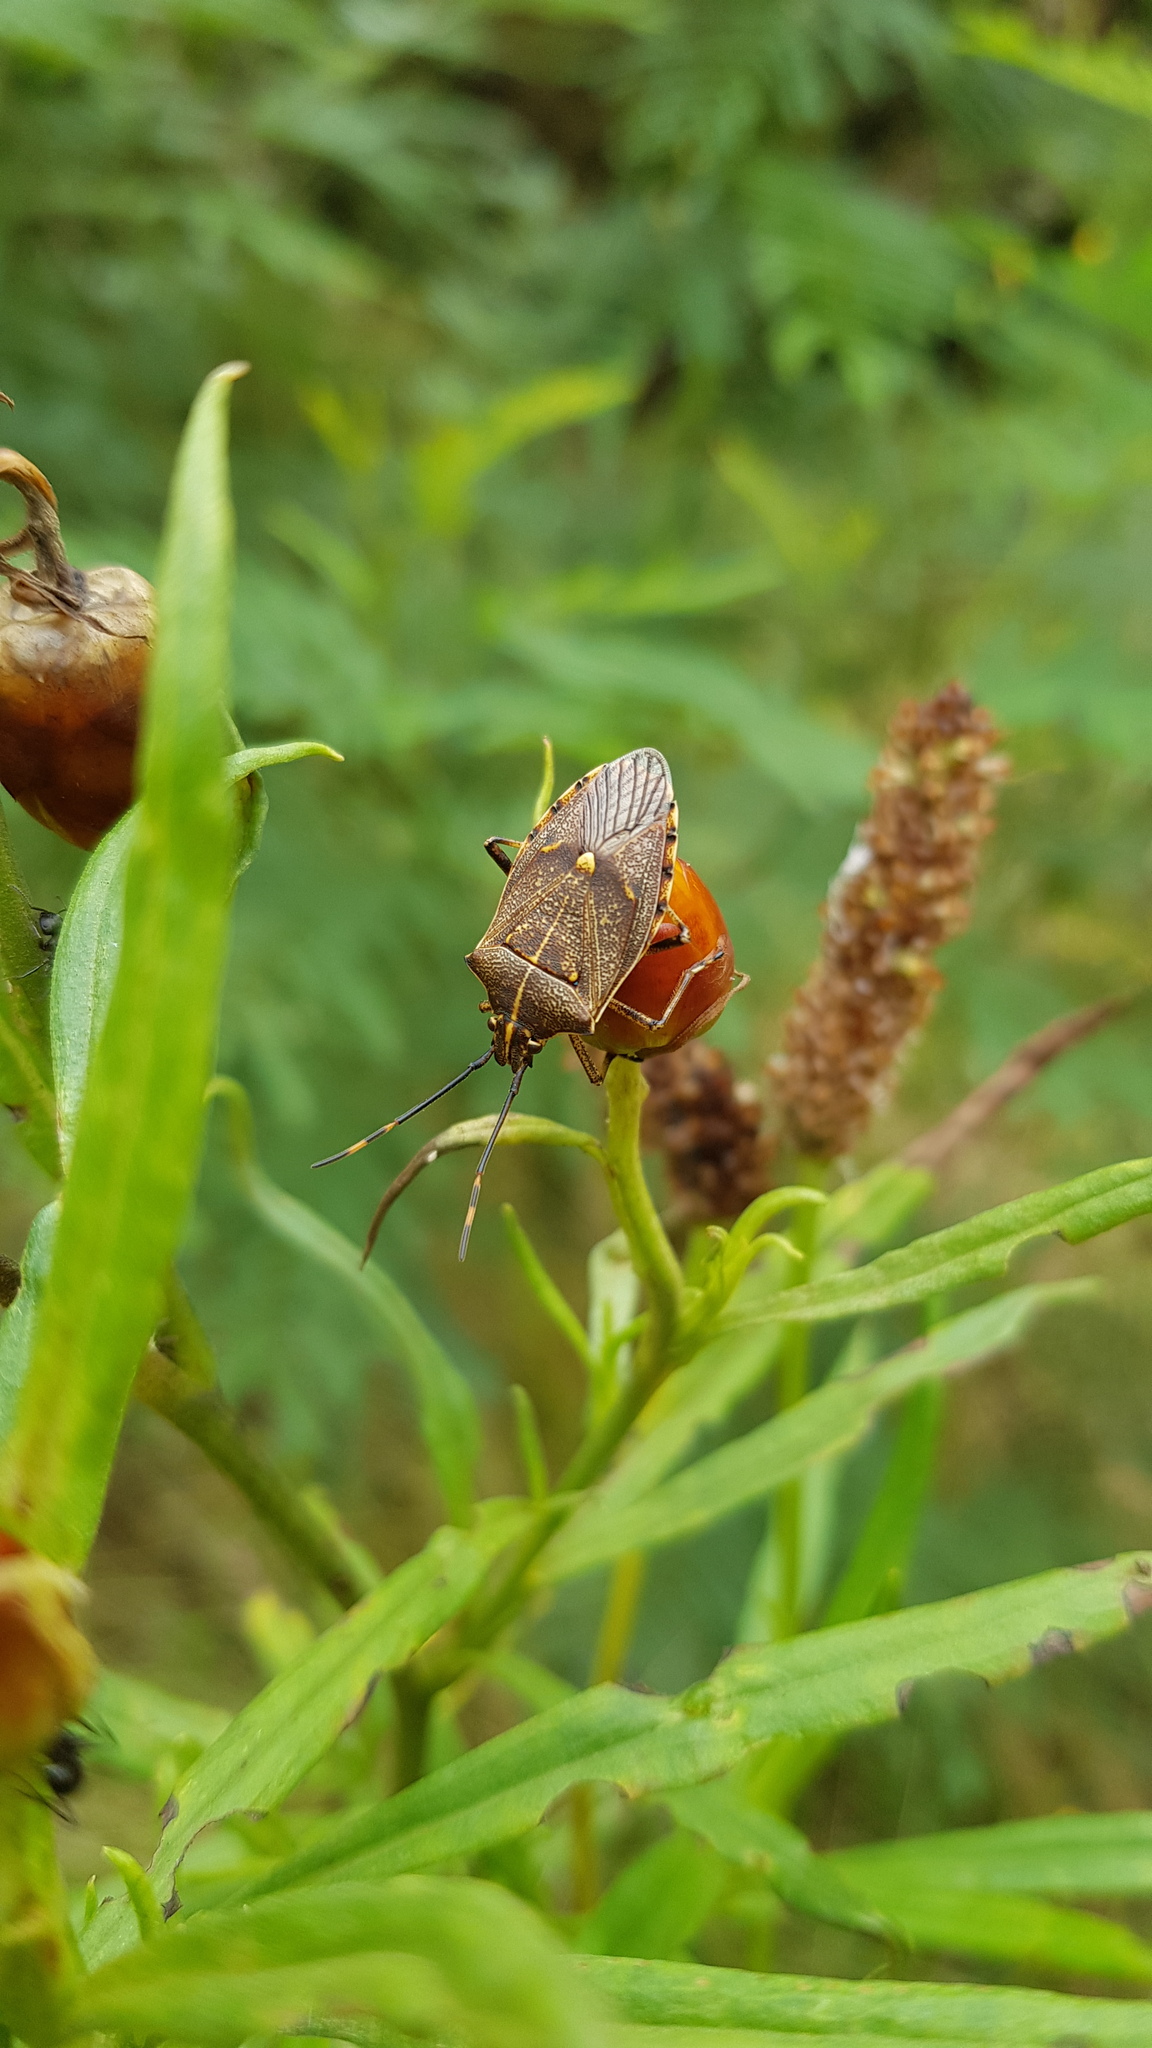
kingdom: Animalia
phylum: Arthropoda
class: Insecta
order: Hemiptera
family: Pentatomidae
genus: Omyta
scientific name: Omyta centrolineata
